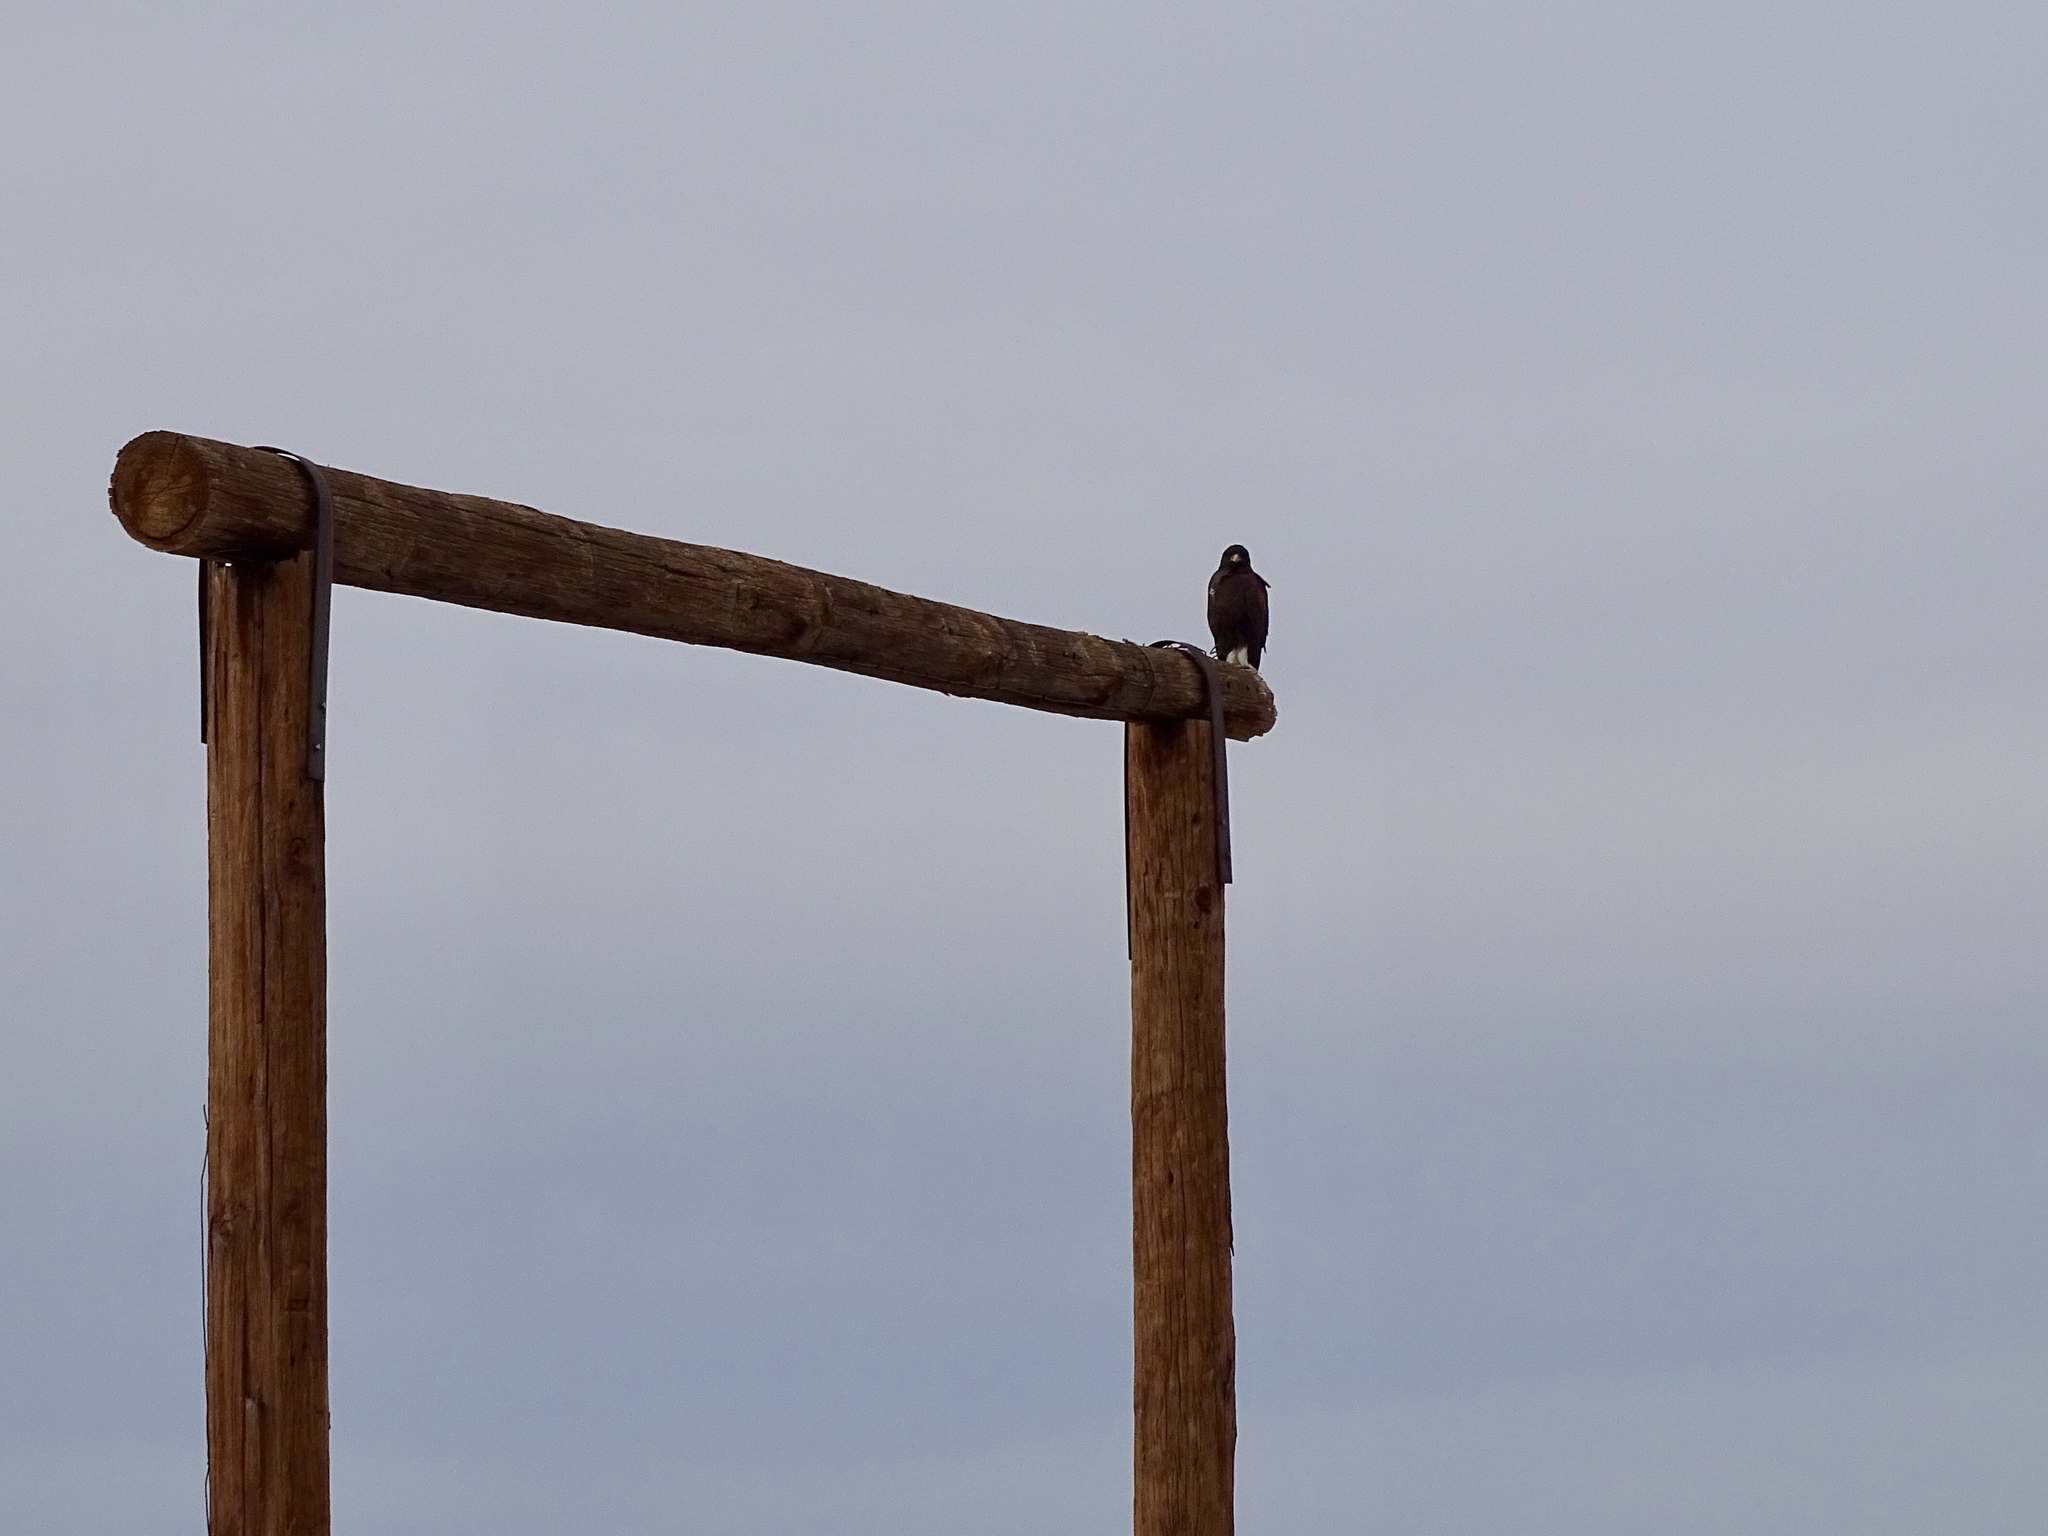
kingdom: Animalia
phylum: Chordata
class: Aves
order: Accipitriformes
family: Accipitridae
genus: Parabuteo
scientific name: Parabuteo unicinctus
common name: Harris's hawk
